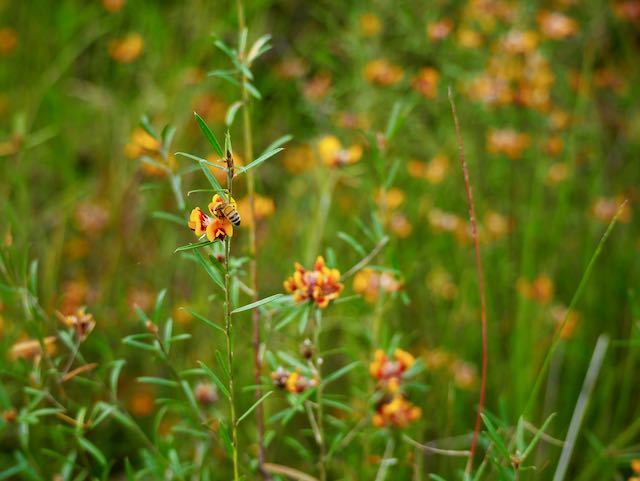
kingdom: Animalia
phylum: Arthropoda
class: Insecta
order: Hymenoptera
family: Apidae
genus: Apis
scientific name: Apis mellifera
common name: Honey bee
